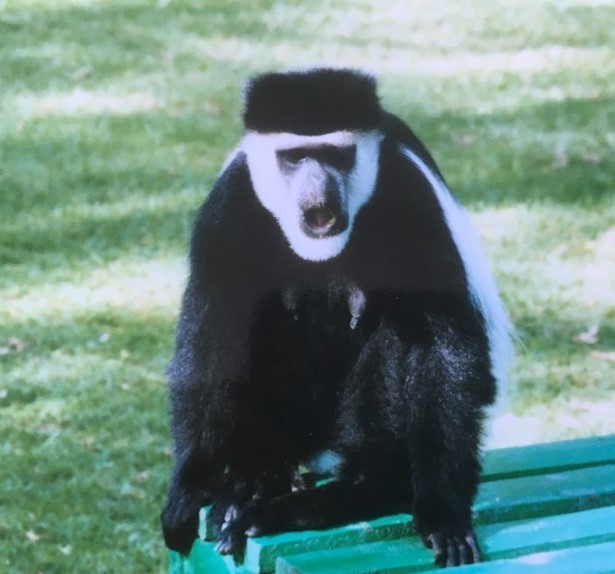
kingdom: Animalia
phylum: Chordata
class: Mammalia
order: Primates
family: Cercopithecidae
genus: Colobus
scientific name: Colobus guereza
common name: Mantled guereza
